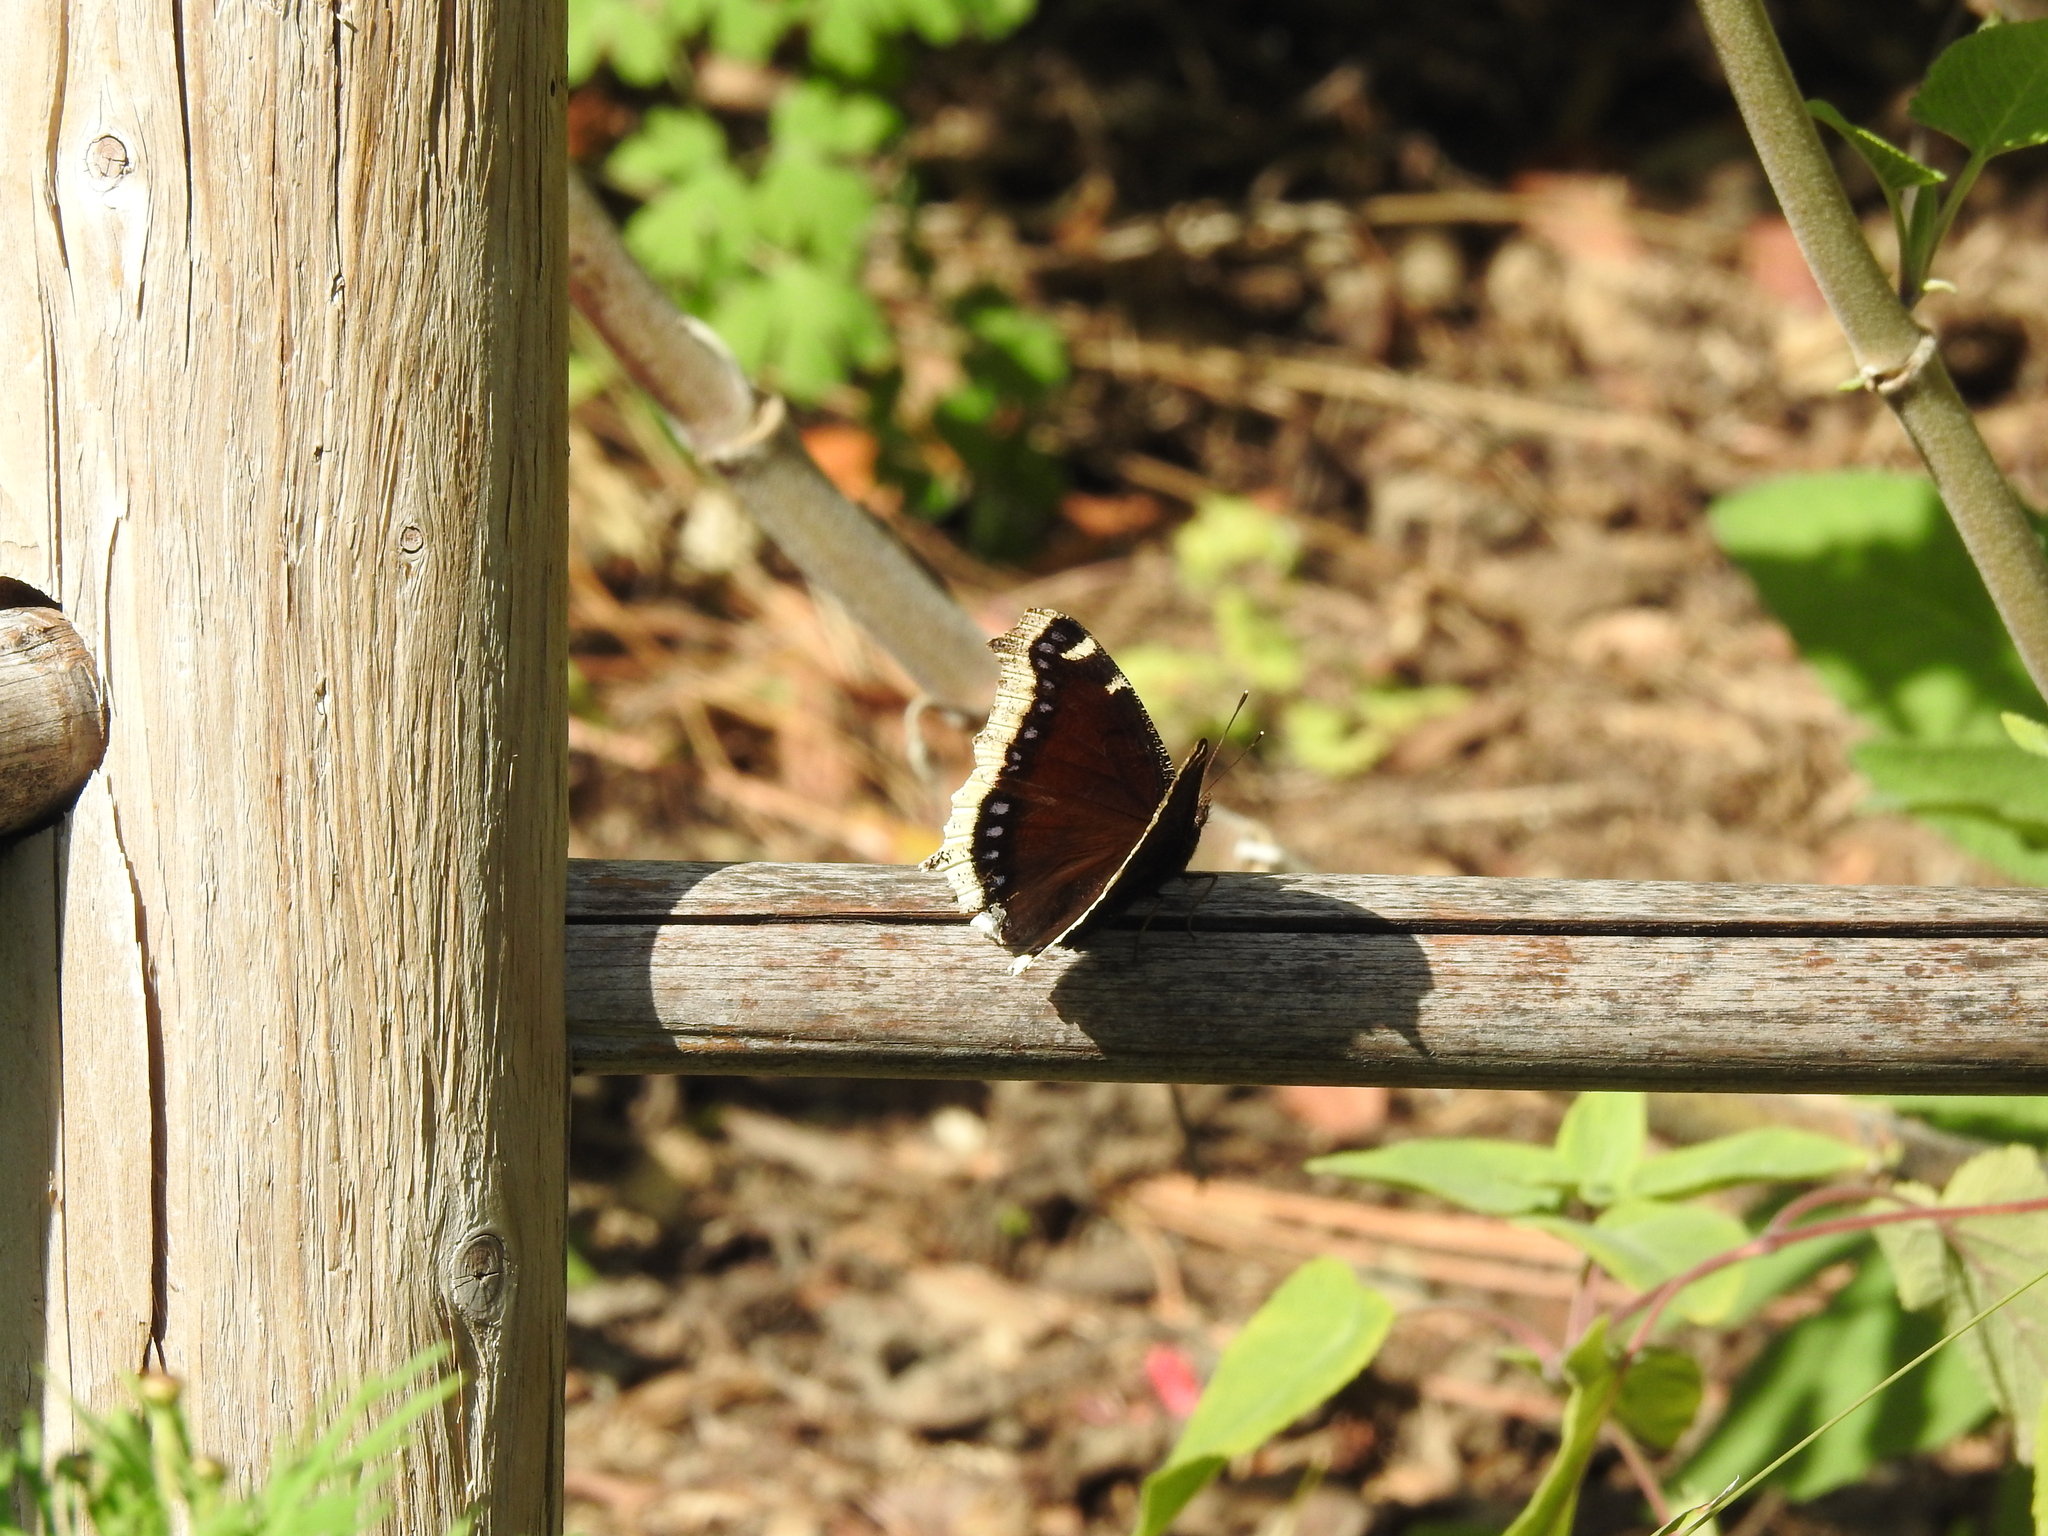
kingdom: Animalia
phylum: Arthropoda
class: Insecta
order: Lepidoptera
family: Nymphalidae
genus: Nymphalis
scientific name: Nymphalis antiopa
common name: Camberwell beauty
